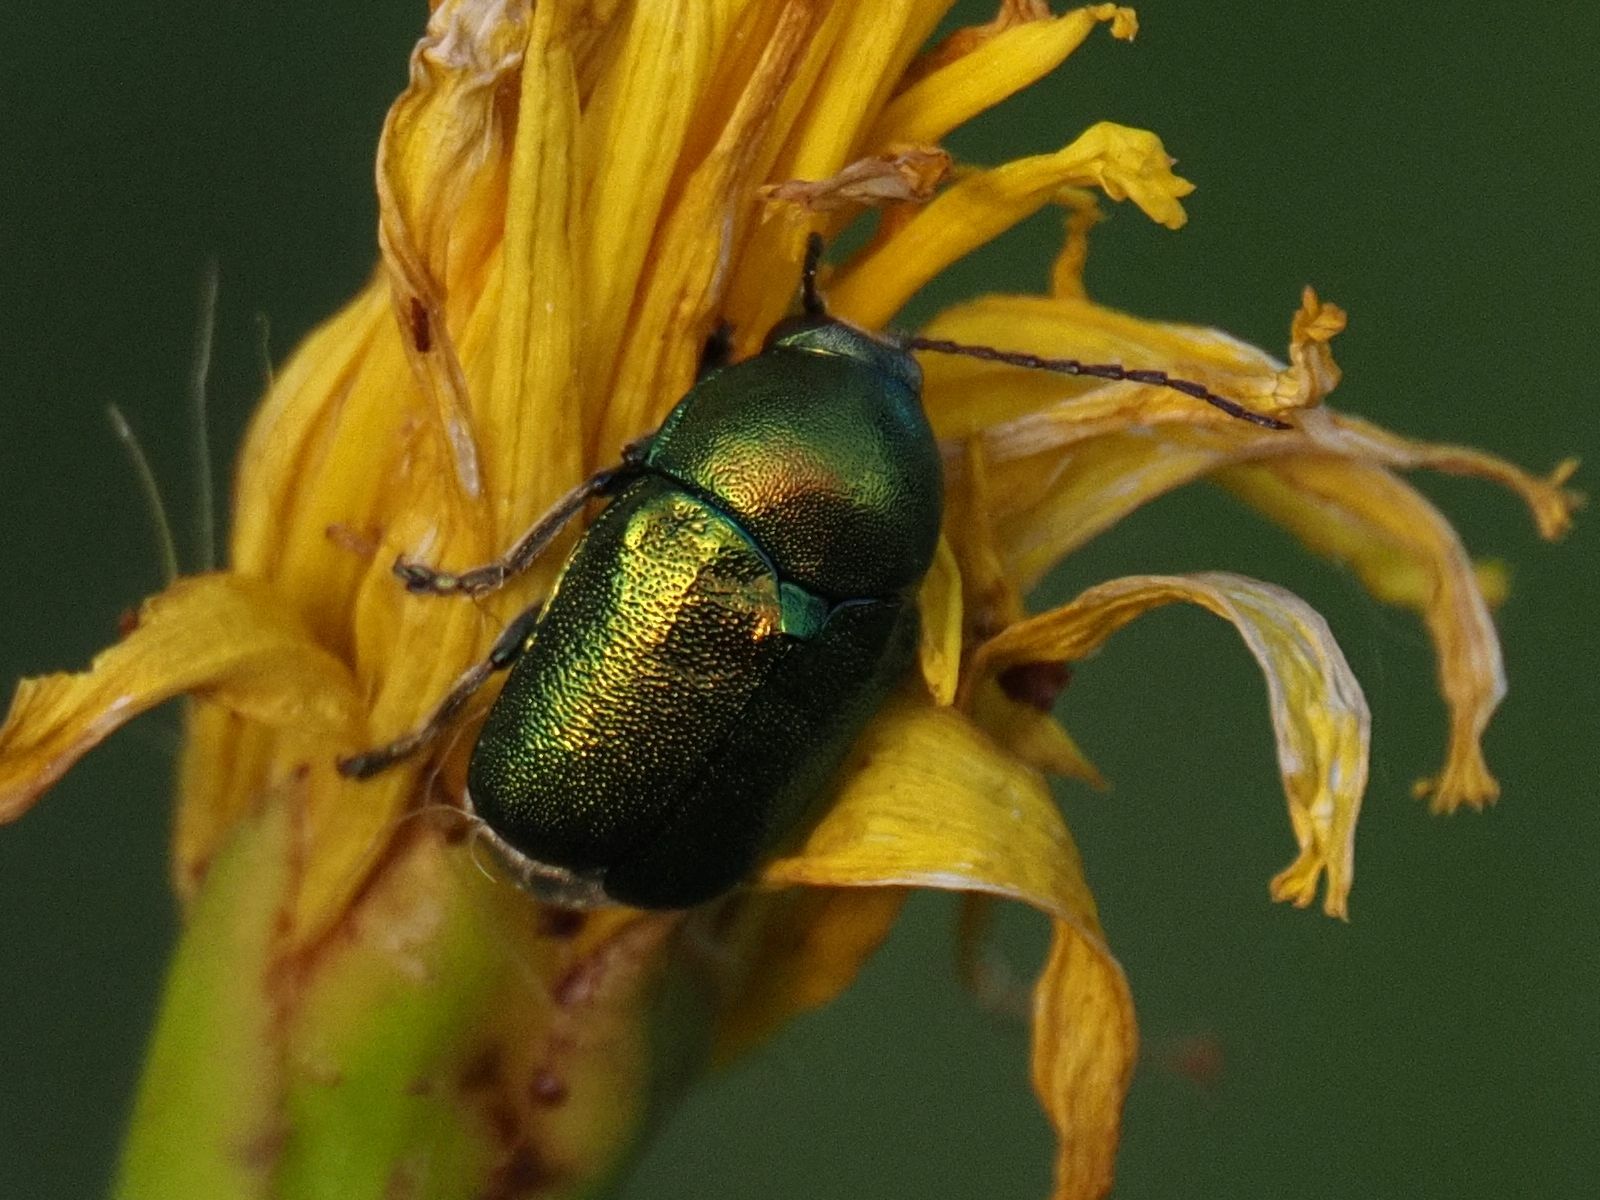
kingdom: Animalia
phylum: Arthropoda
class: Insecta
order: Coleoptera
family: Chrysomelidae
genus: Cryptocephalus
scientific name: Cryptocephalus sericeus
